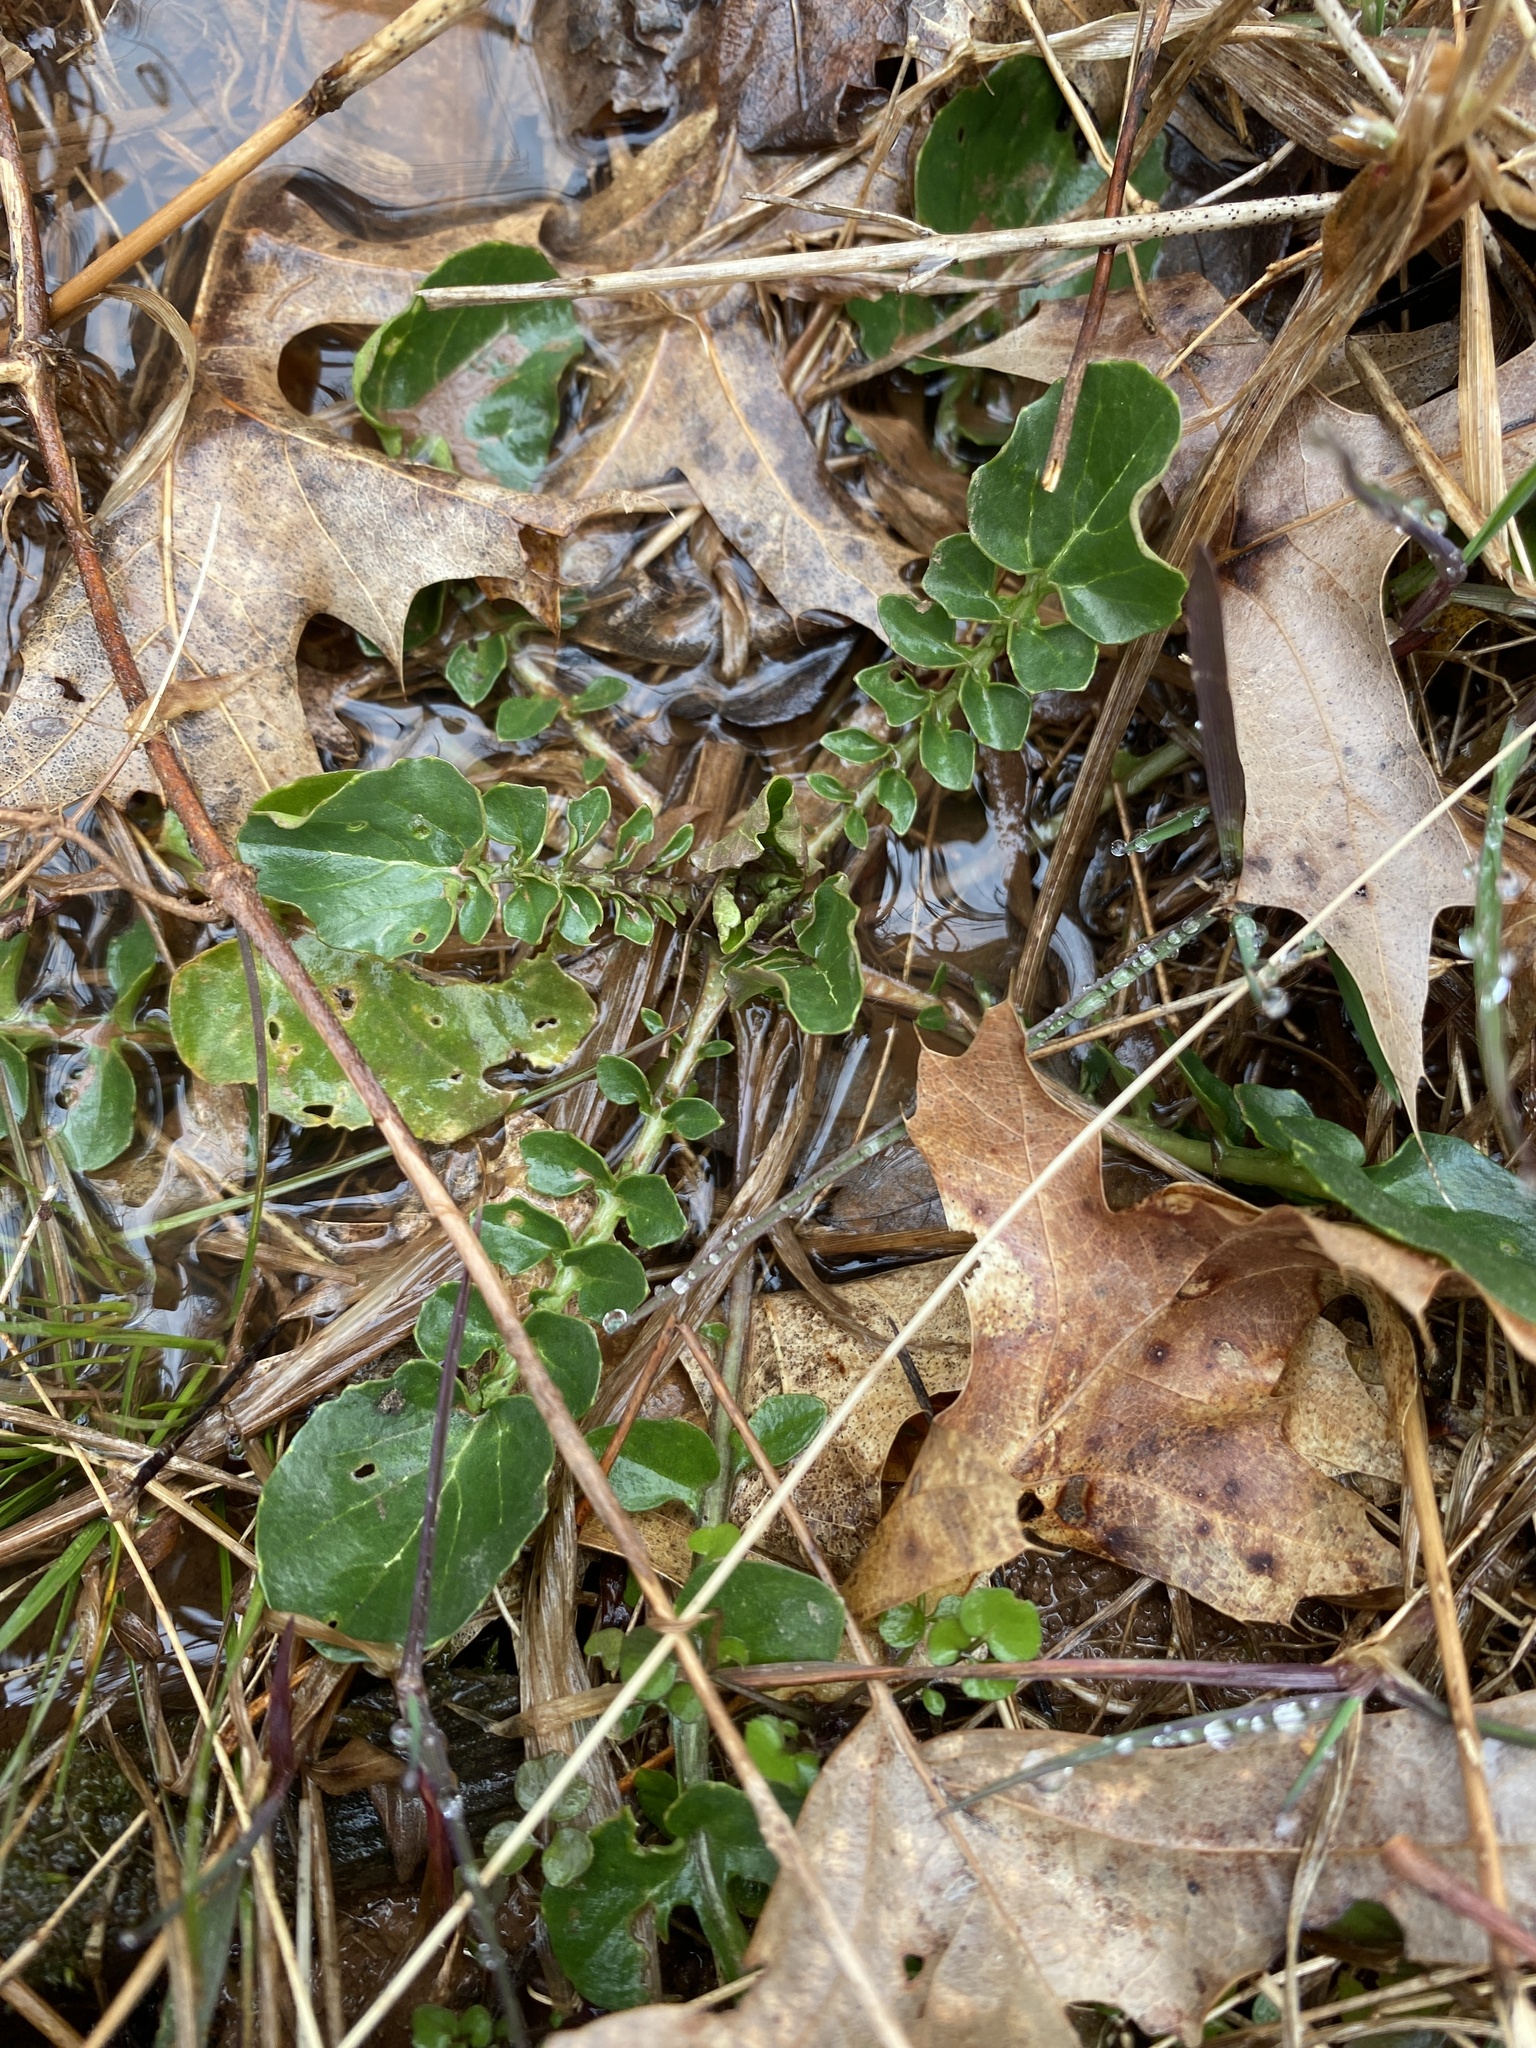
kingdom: Plantae
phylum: Tracheophyta
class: Magnoliopsida
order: Brassicales
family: Brassicaceae
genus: Barbarea
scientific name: Barbarea verna
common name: American cress
